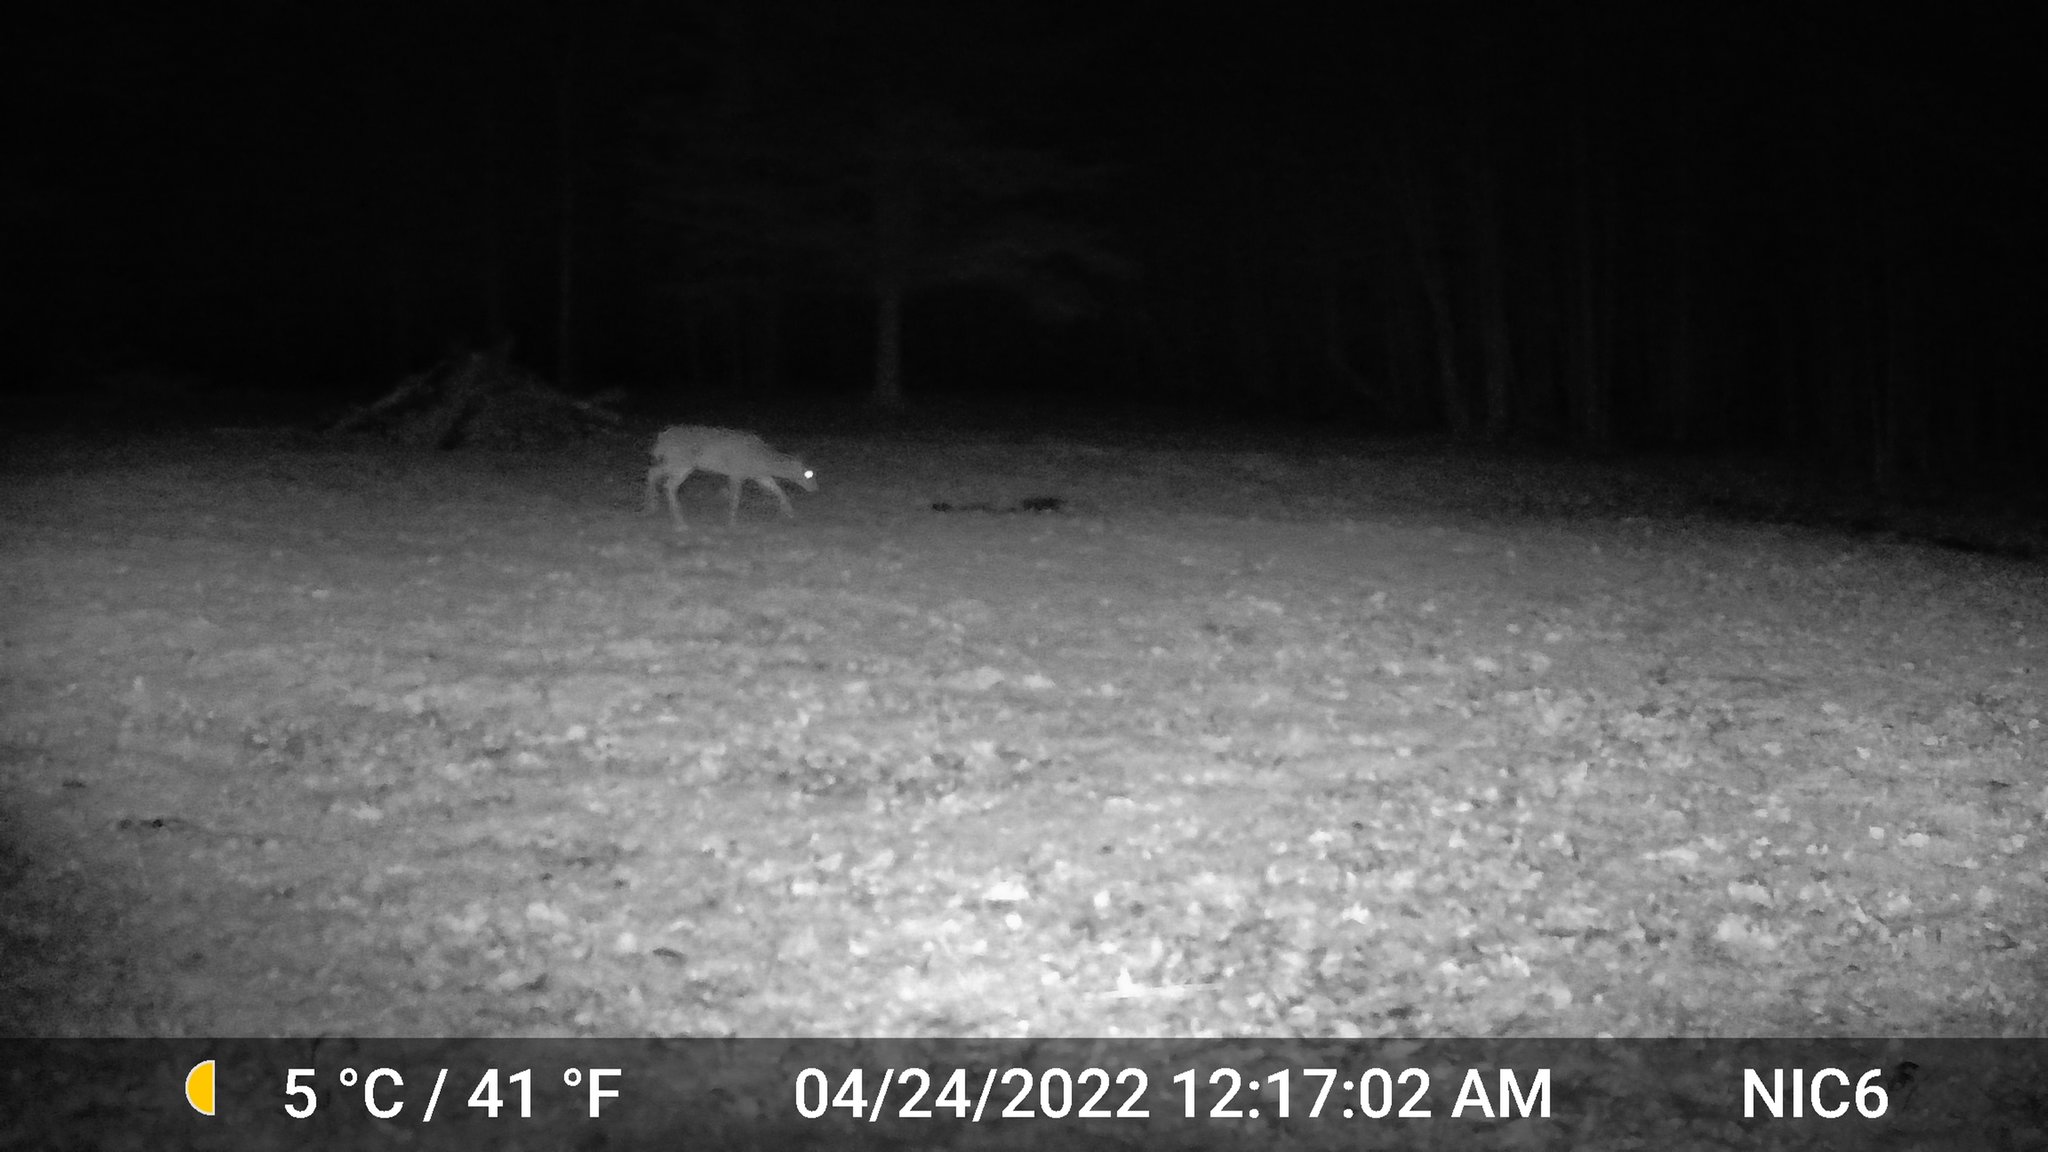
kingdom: Animalia
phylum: Chordata
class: Mammalia
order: Artiodactyla
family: Cervidae
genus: Odocoileus
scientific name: Odocoileus virginianus
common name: White-tailed deer
